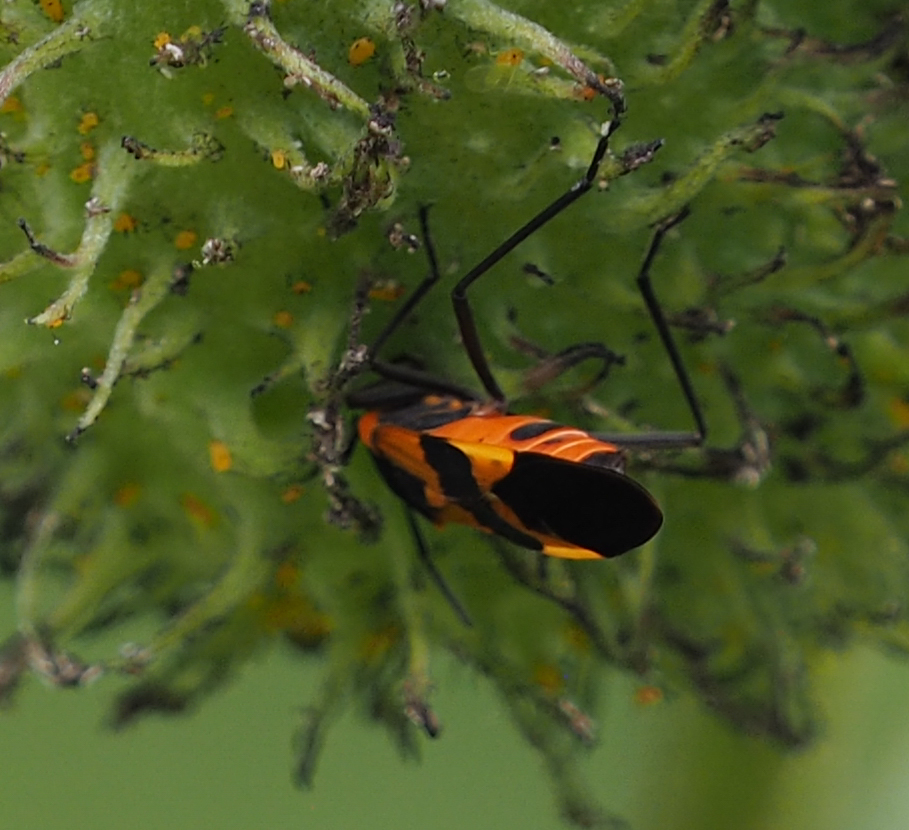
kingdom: Animalia
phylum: Arthropoda
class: Insecta
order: Hemiptera
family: Lygaeidae
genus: Oncopeltus
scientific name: Oncopeltus fasciatus
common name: Large milkweed bug
